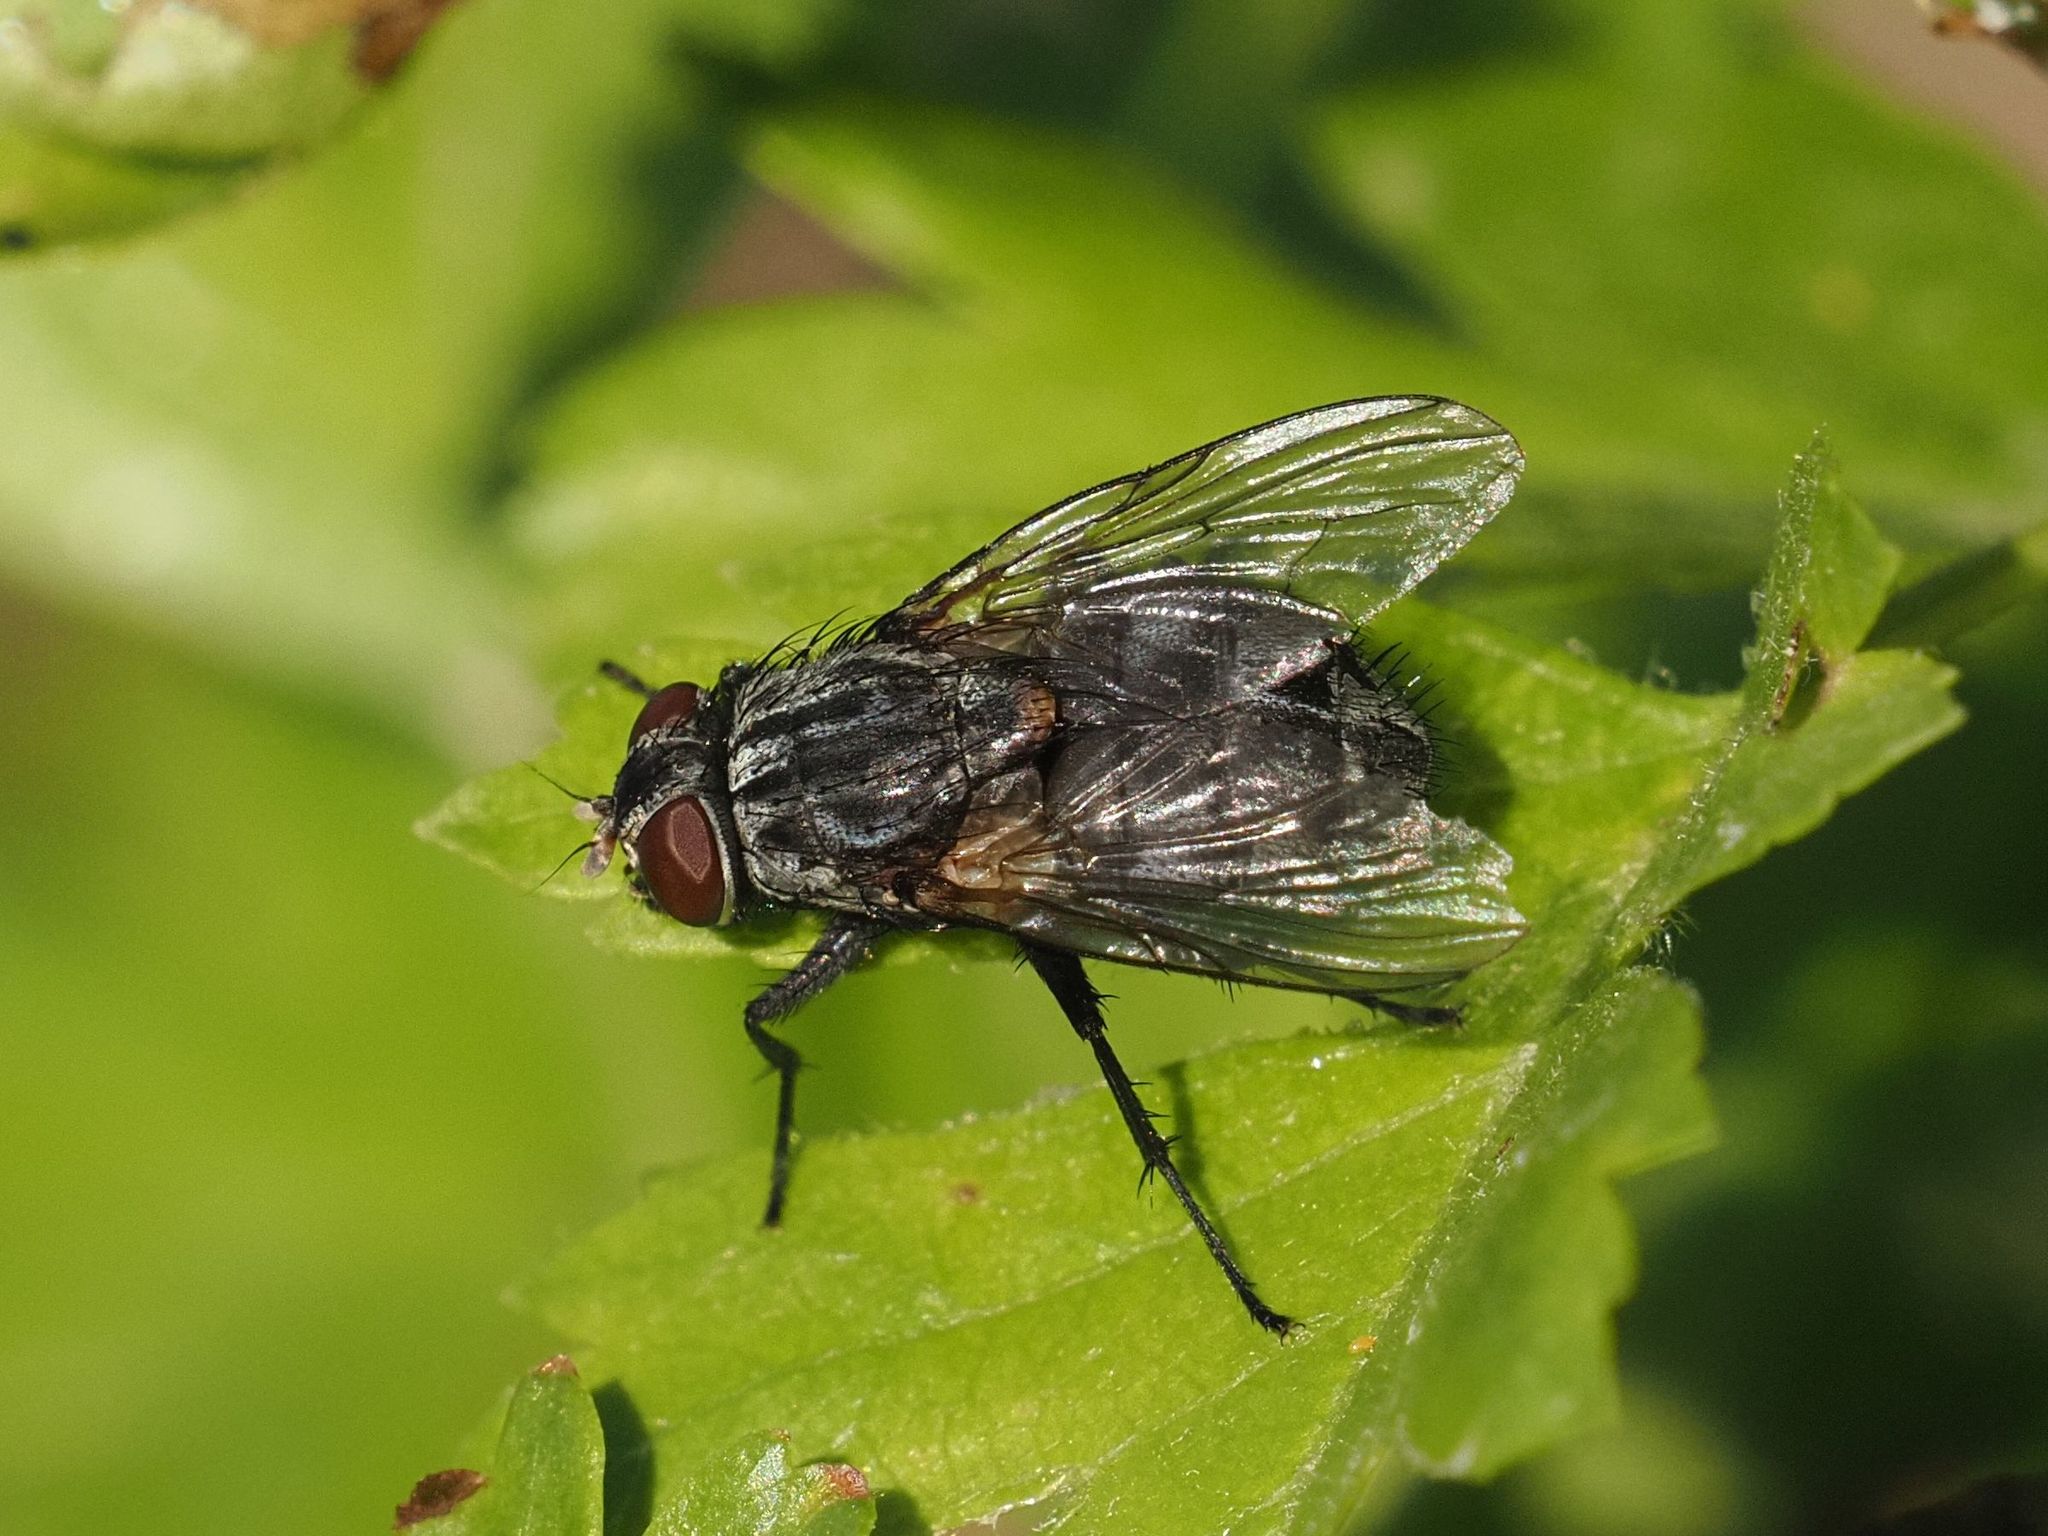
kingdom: Animalia
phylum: Arthropoda
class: Insecta
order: Diptera
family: Muscidae
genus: Muscina
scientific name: Muscina prolapsa
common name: Muscoid fly
